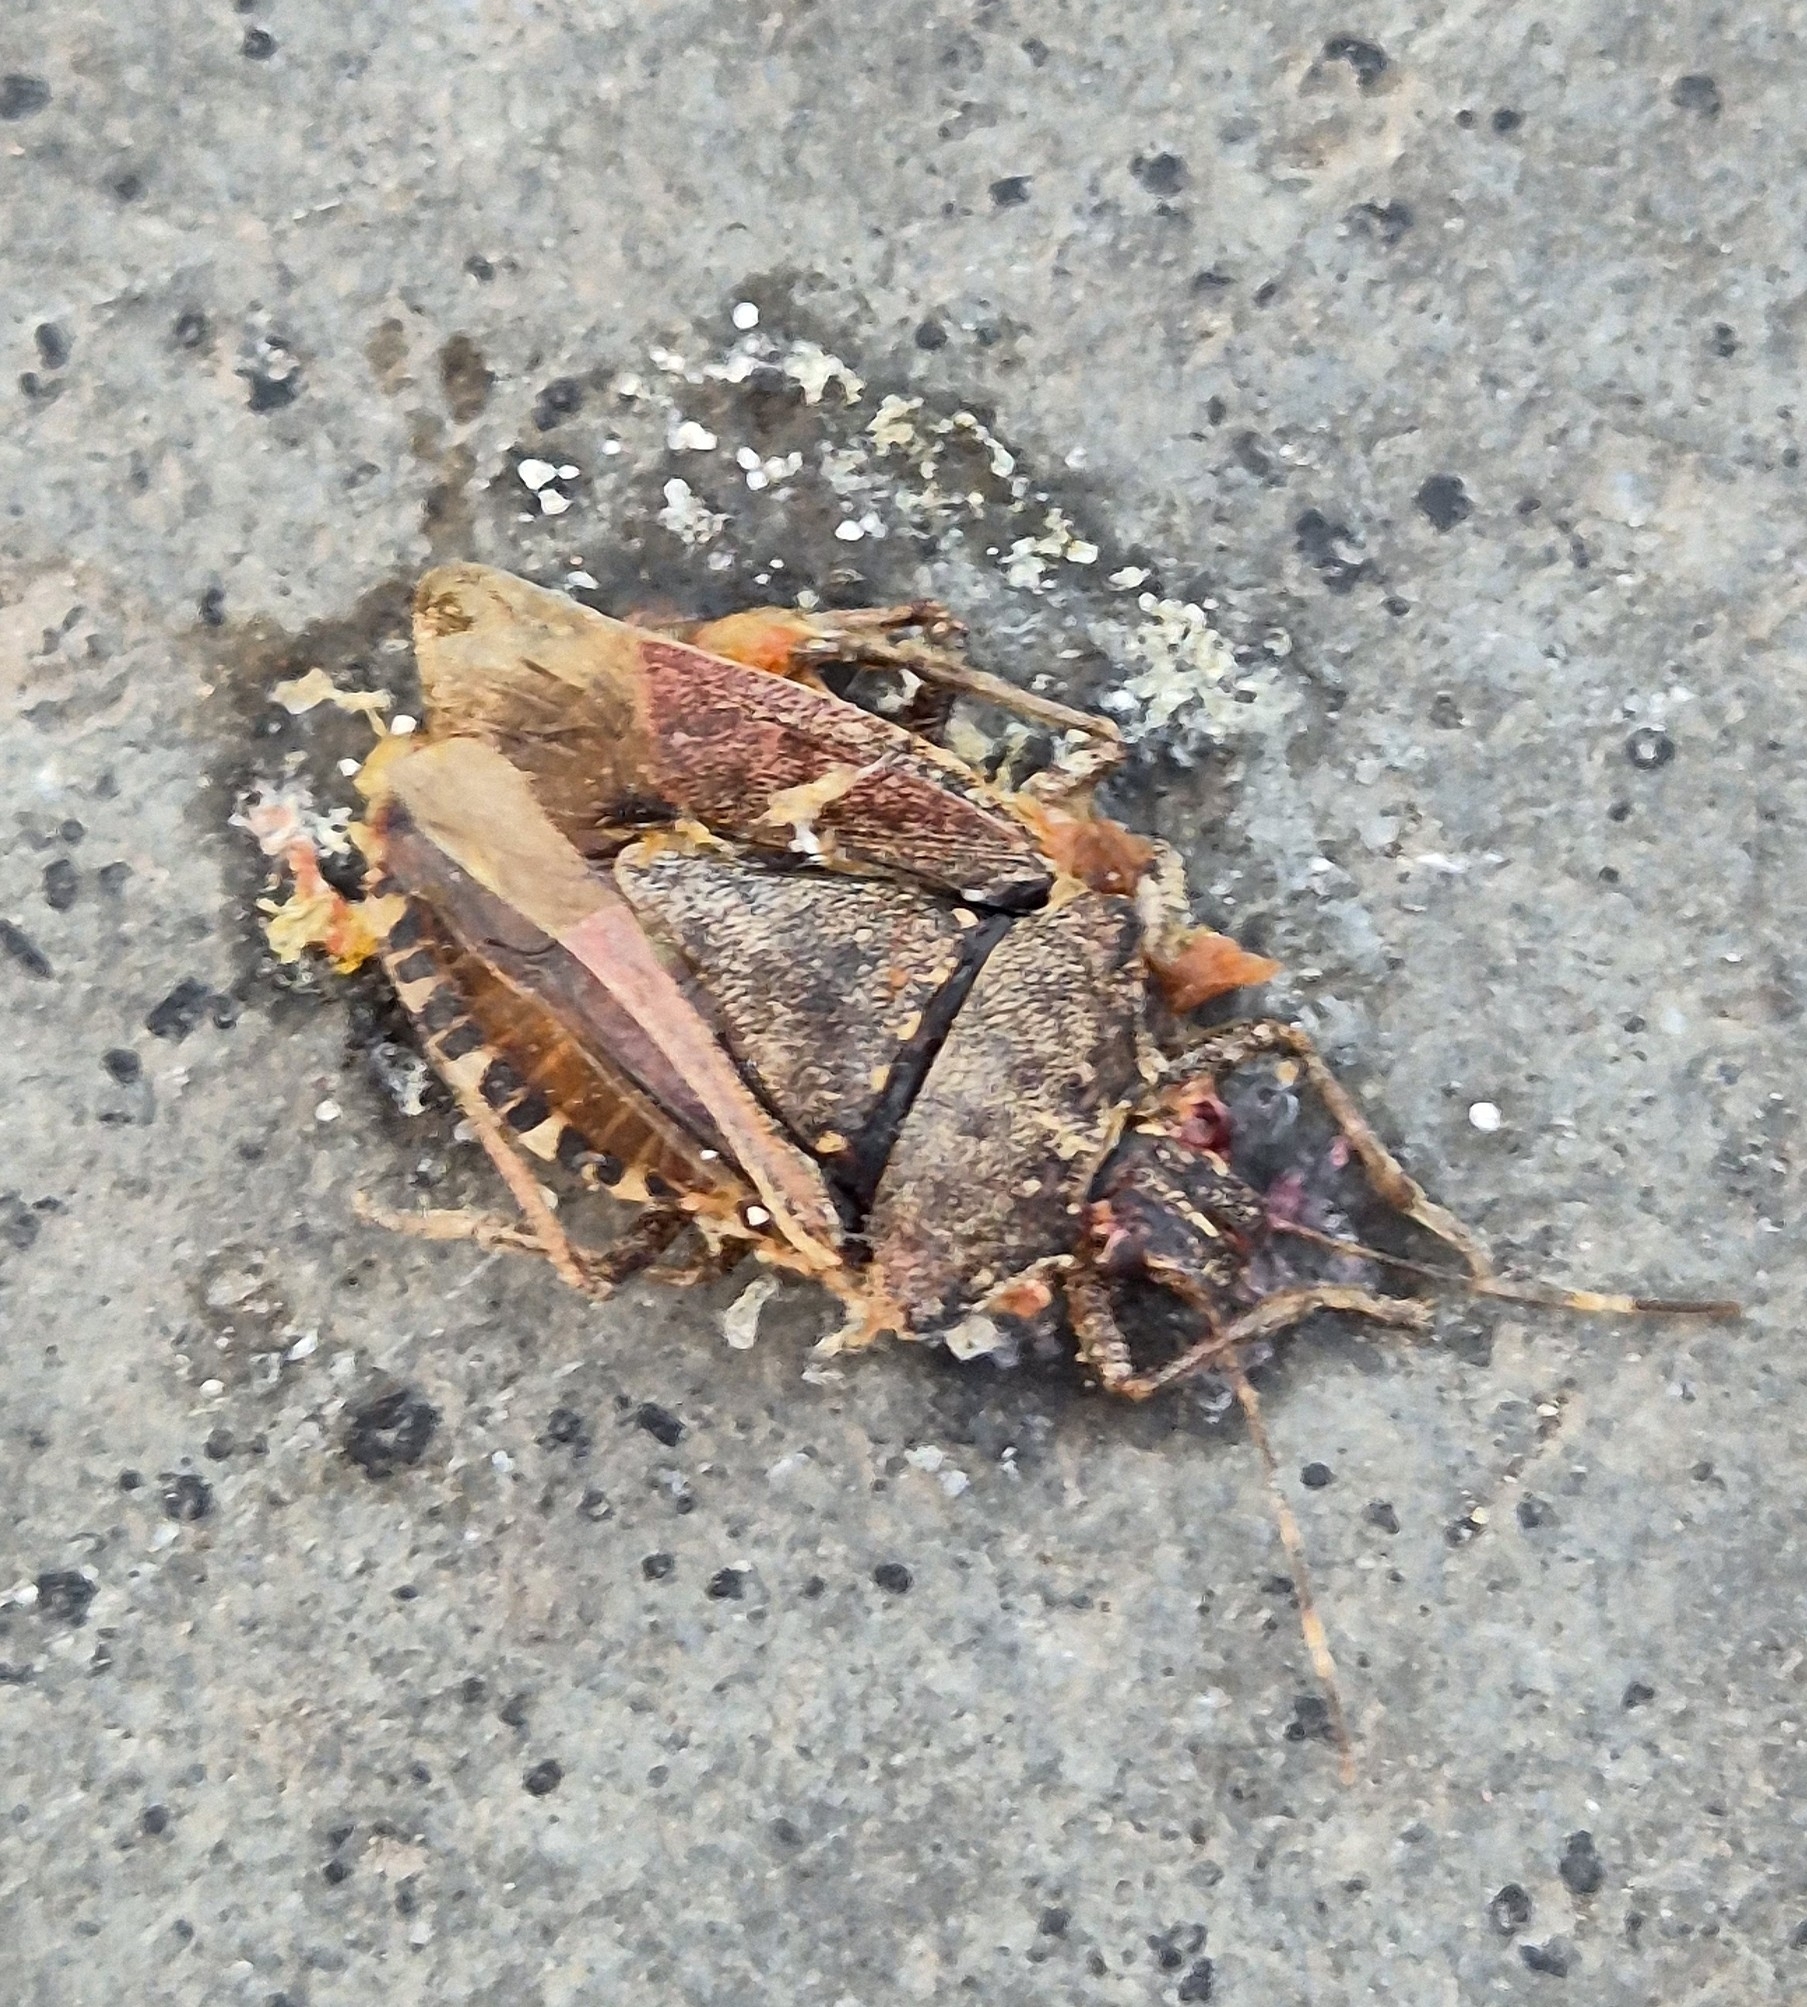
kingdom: Animalia
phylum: Arthropoda
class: Insecta
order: Hemiptera
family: Pentatomidae
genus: Halyomorpha
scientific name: Halyomorpha halys
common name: Brown marmorated stink bug
